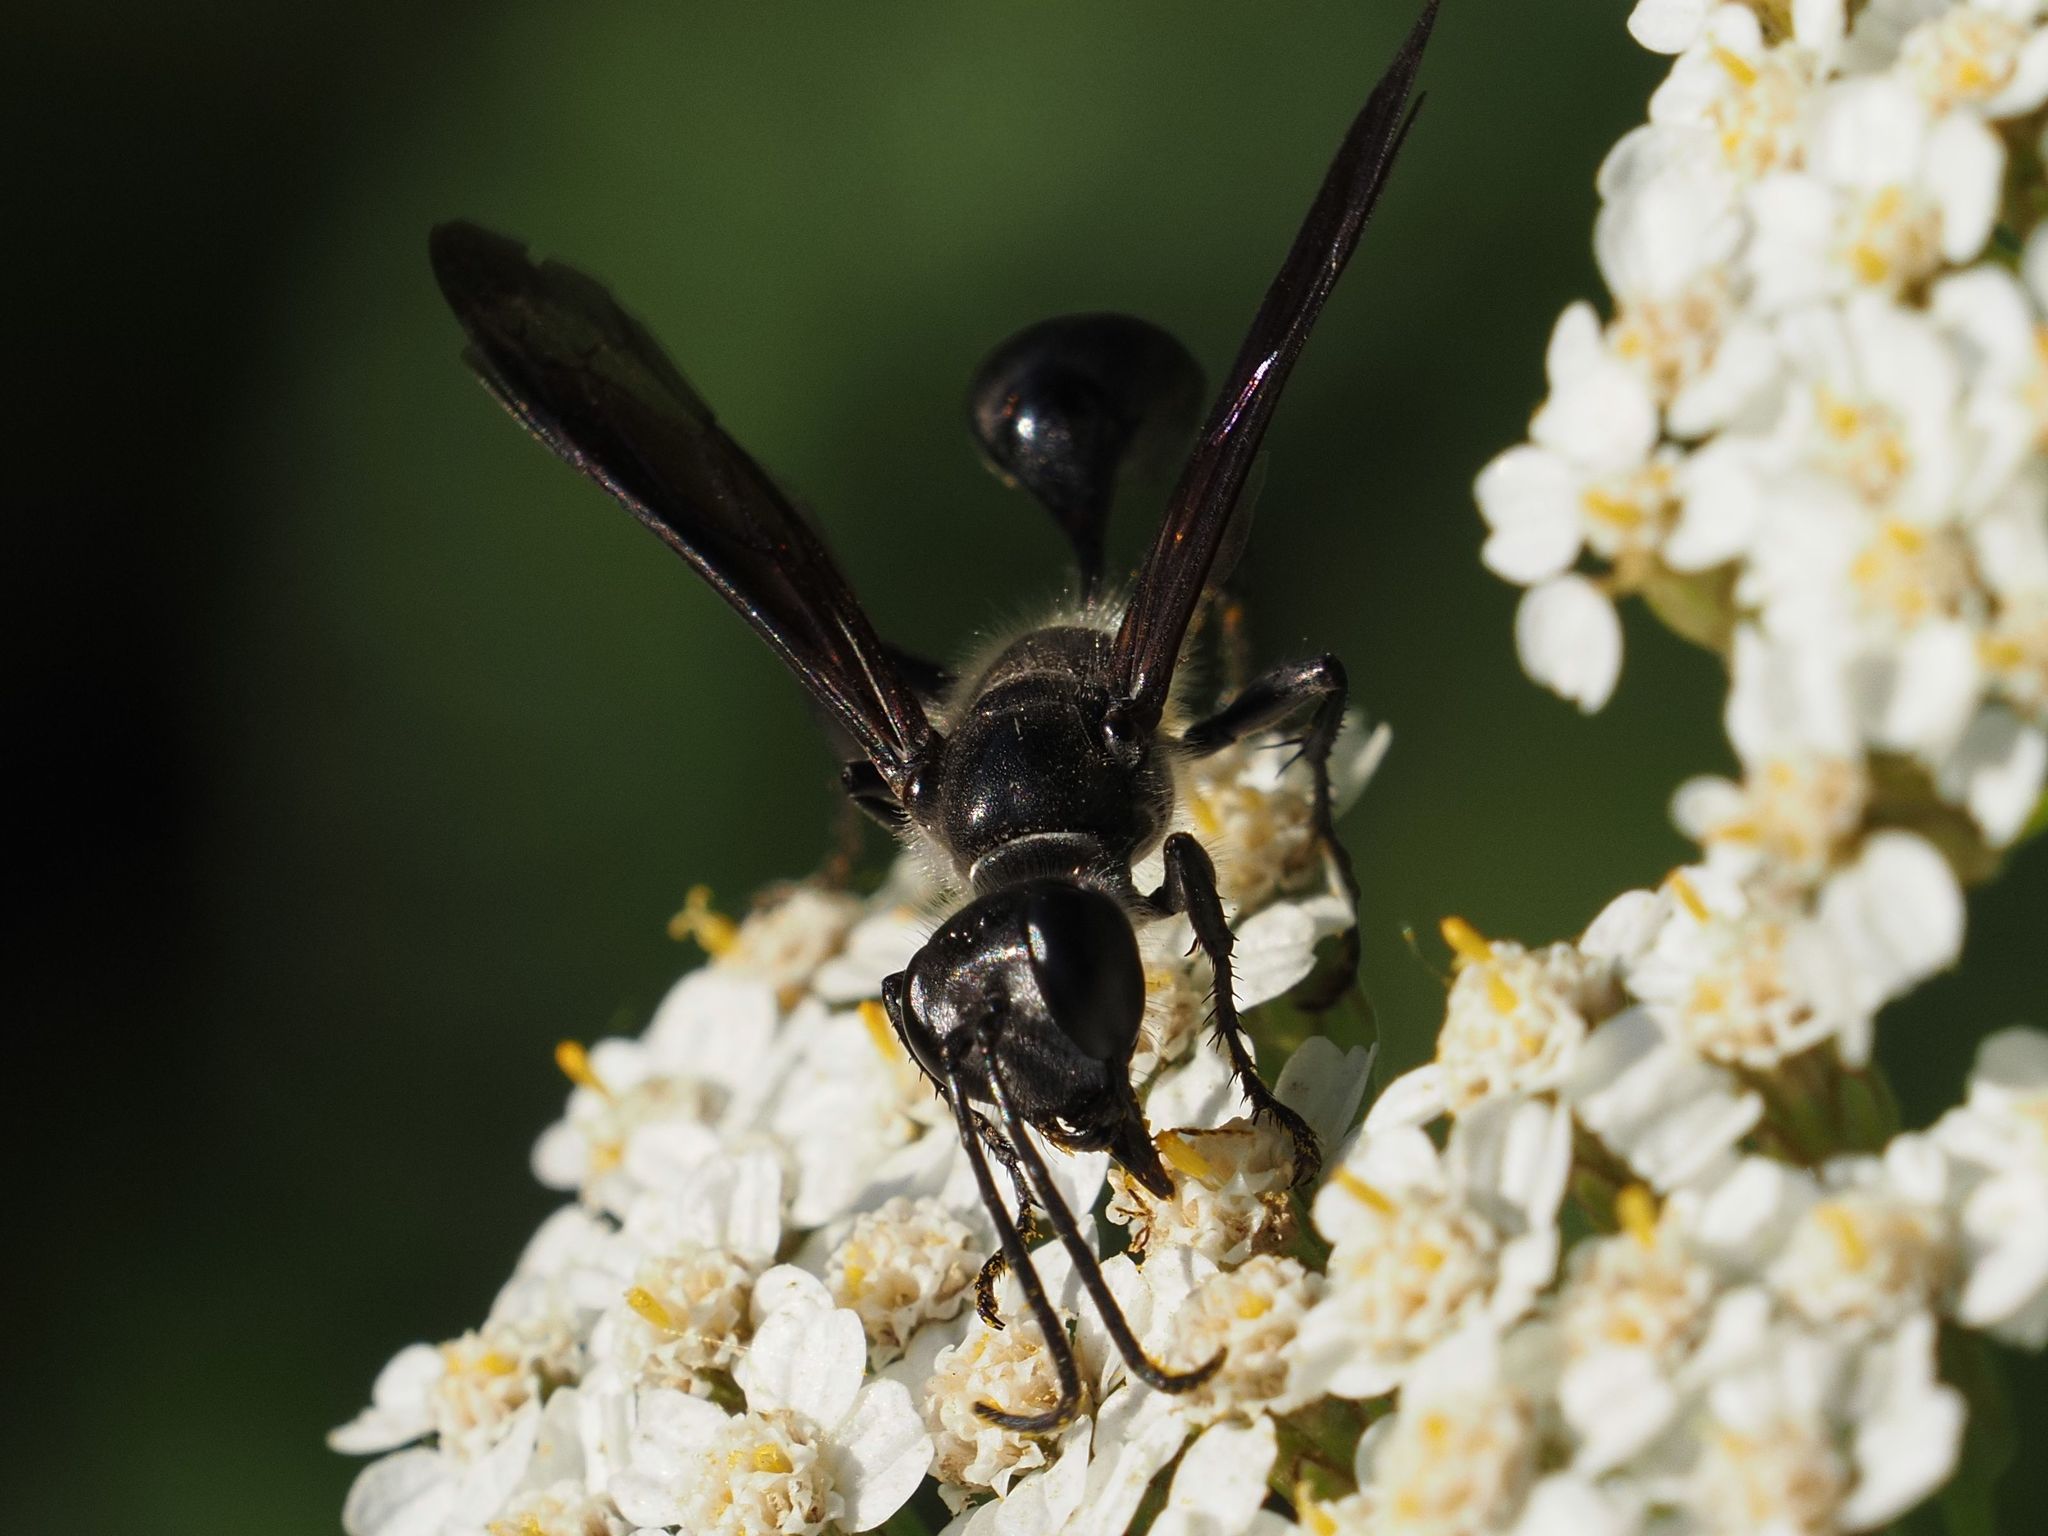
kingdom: Animalia
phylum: Arthropoda
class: Insecta
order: Hymenoptera
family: Sphecidae
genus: Isodontia
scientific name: Isodontia mexicana
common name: Mud dauber
